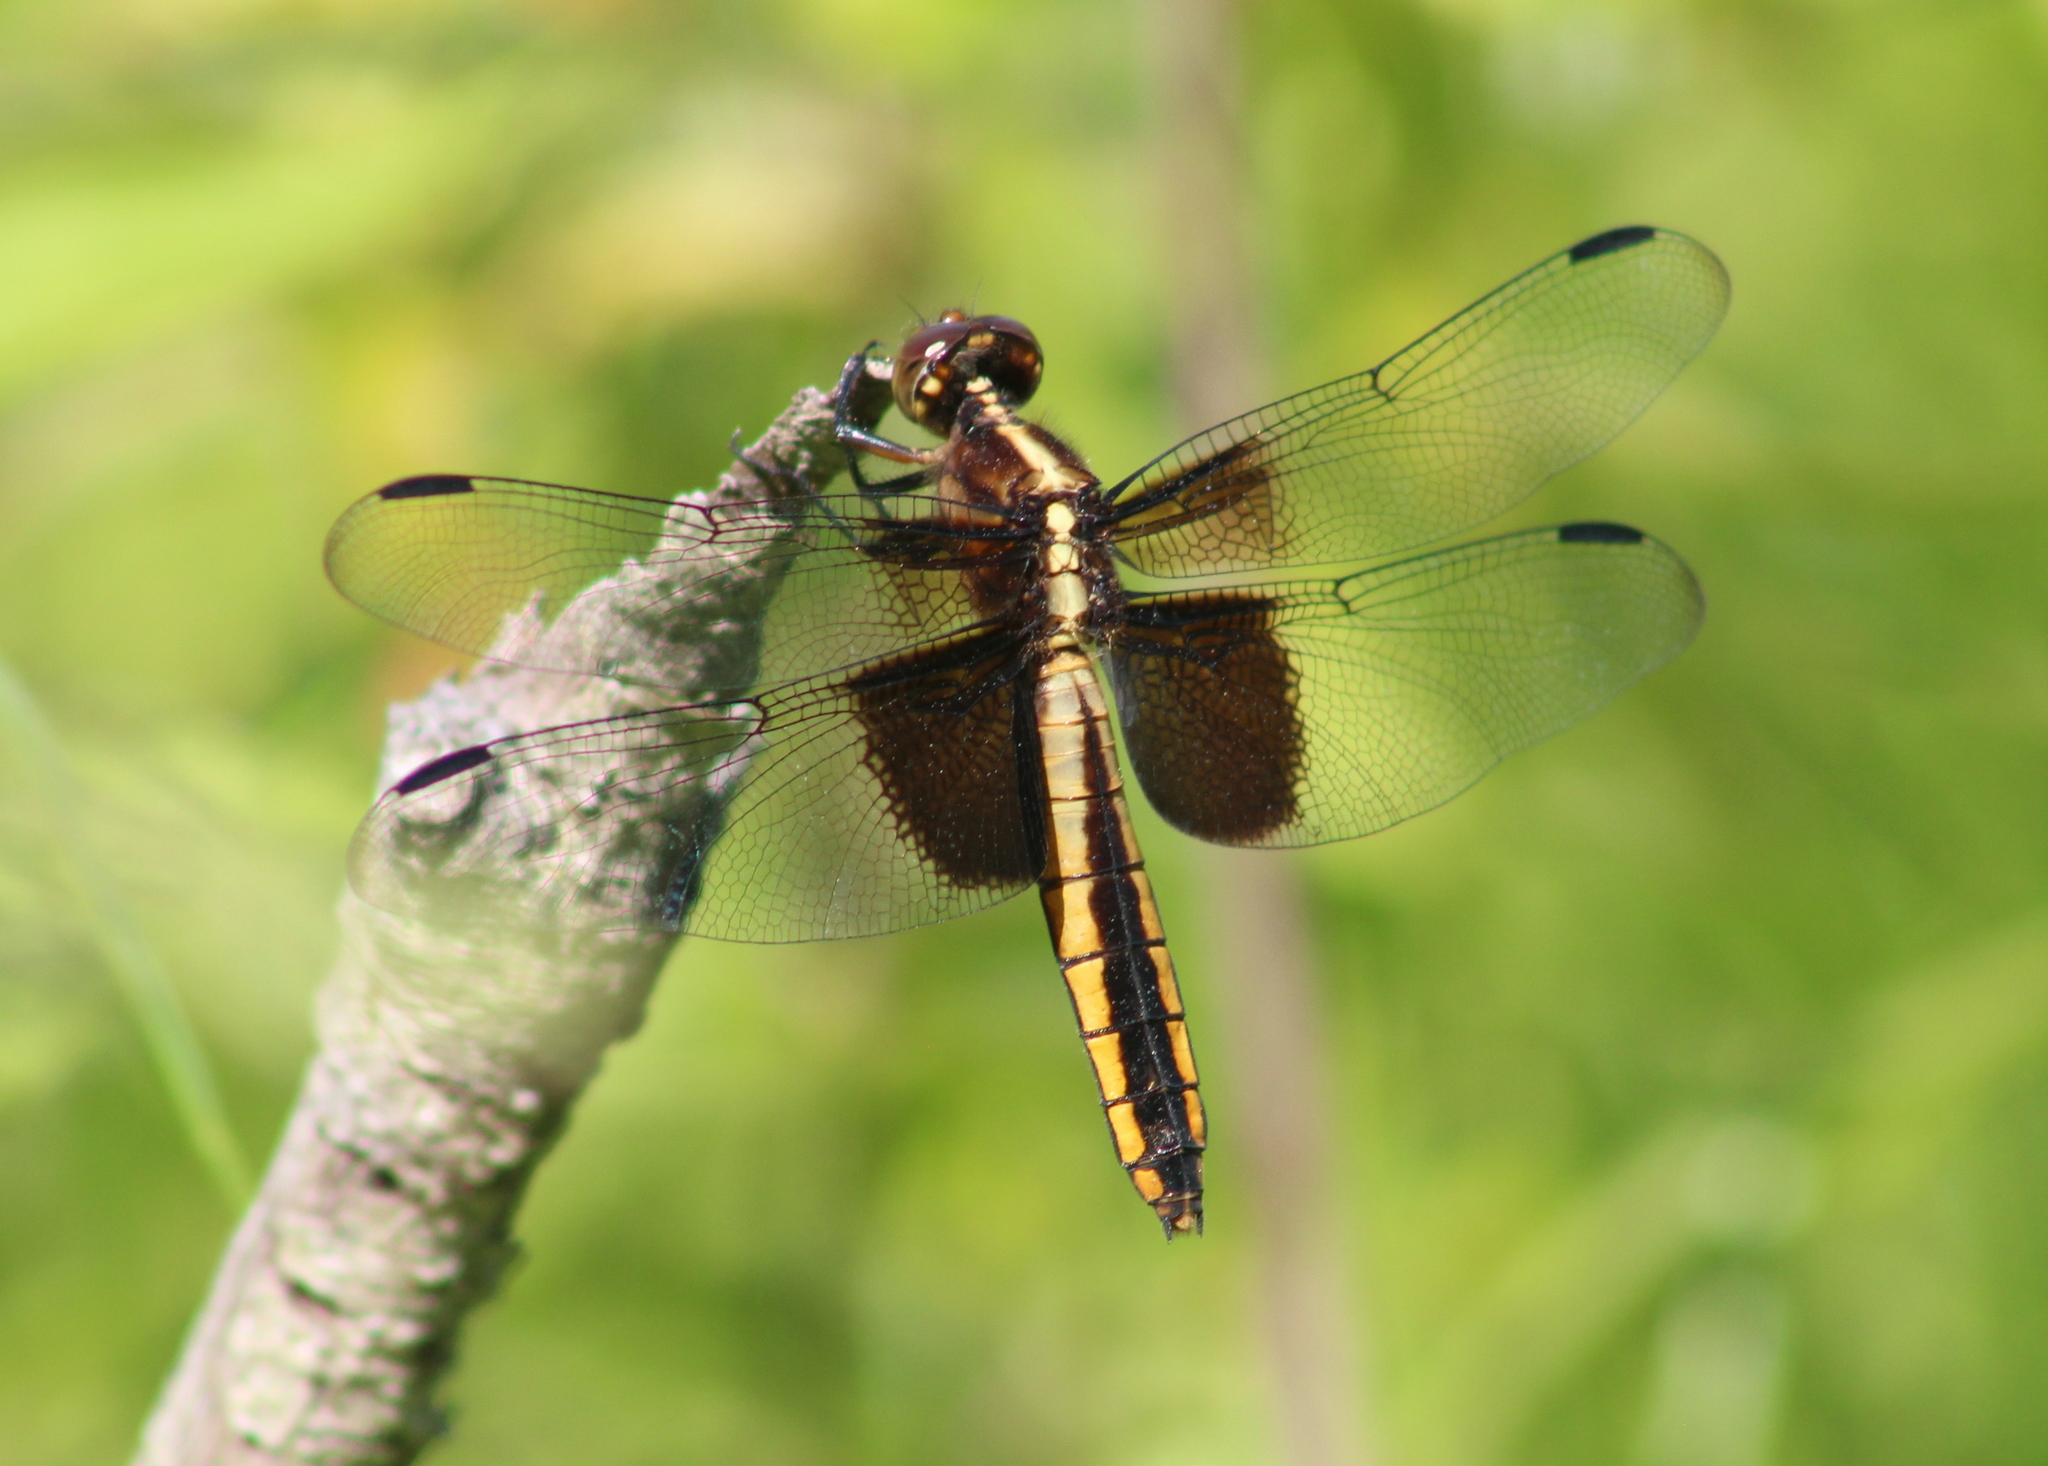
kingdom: Animalia
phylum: Arthropoda
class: Insecta
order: Odonata
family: Libellulidae
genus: Libellula
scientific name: Libellula luctuosa
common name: Widow skimmer
